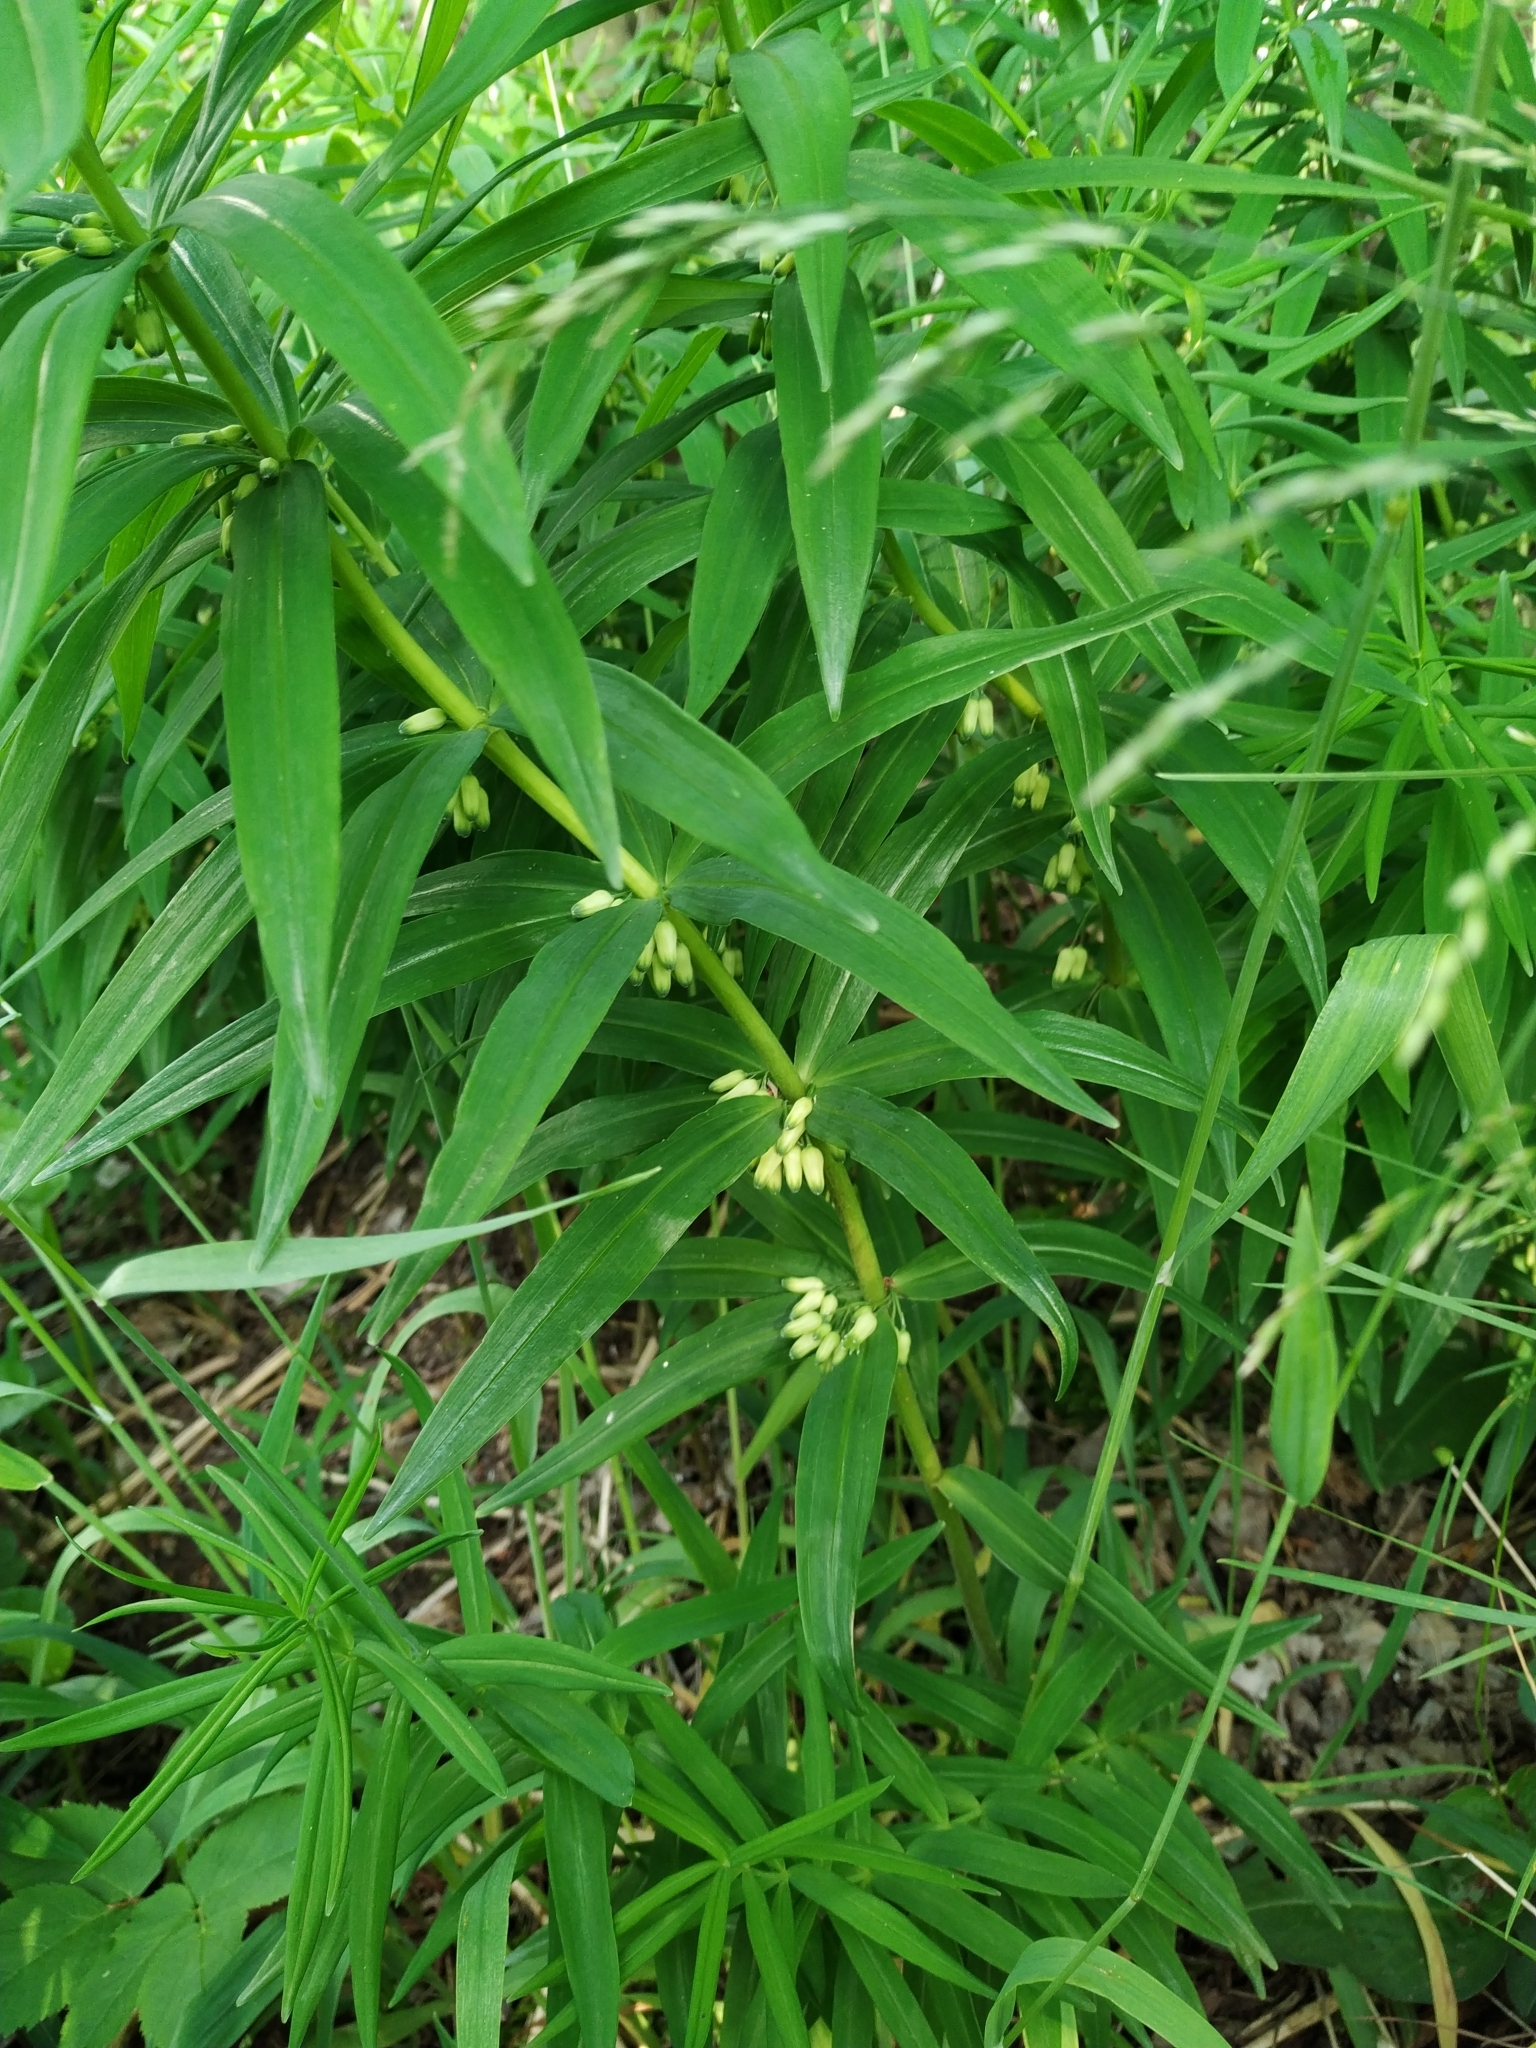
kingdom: Plantae
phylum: Tracheophyta
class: Liliopsida
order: Asparagales
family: Asparagaceae
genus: Polygonatum
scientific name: Polygonatum verticillatum
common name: Whorled solomon's-seal
